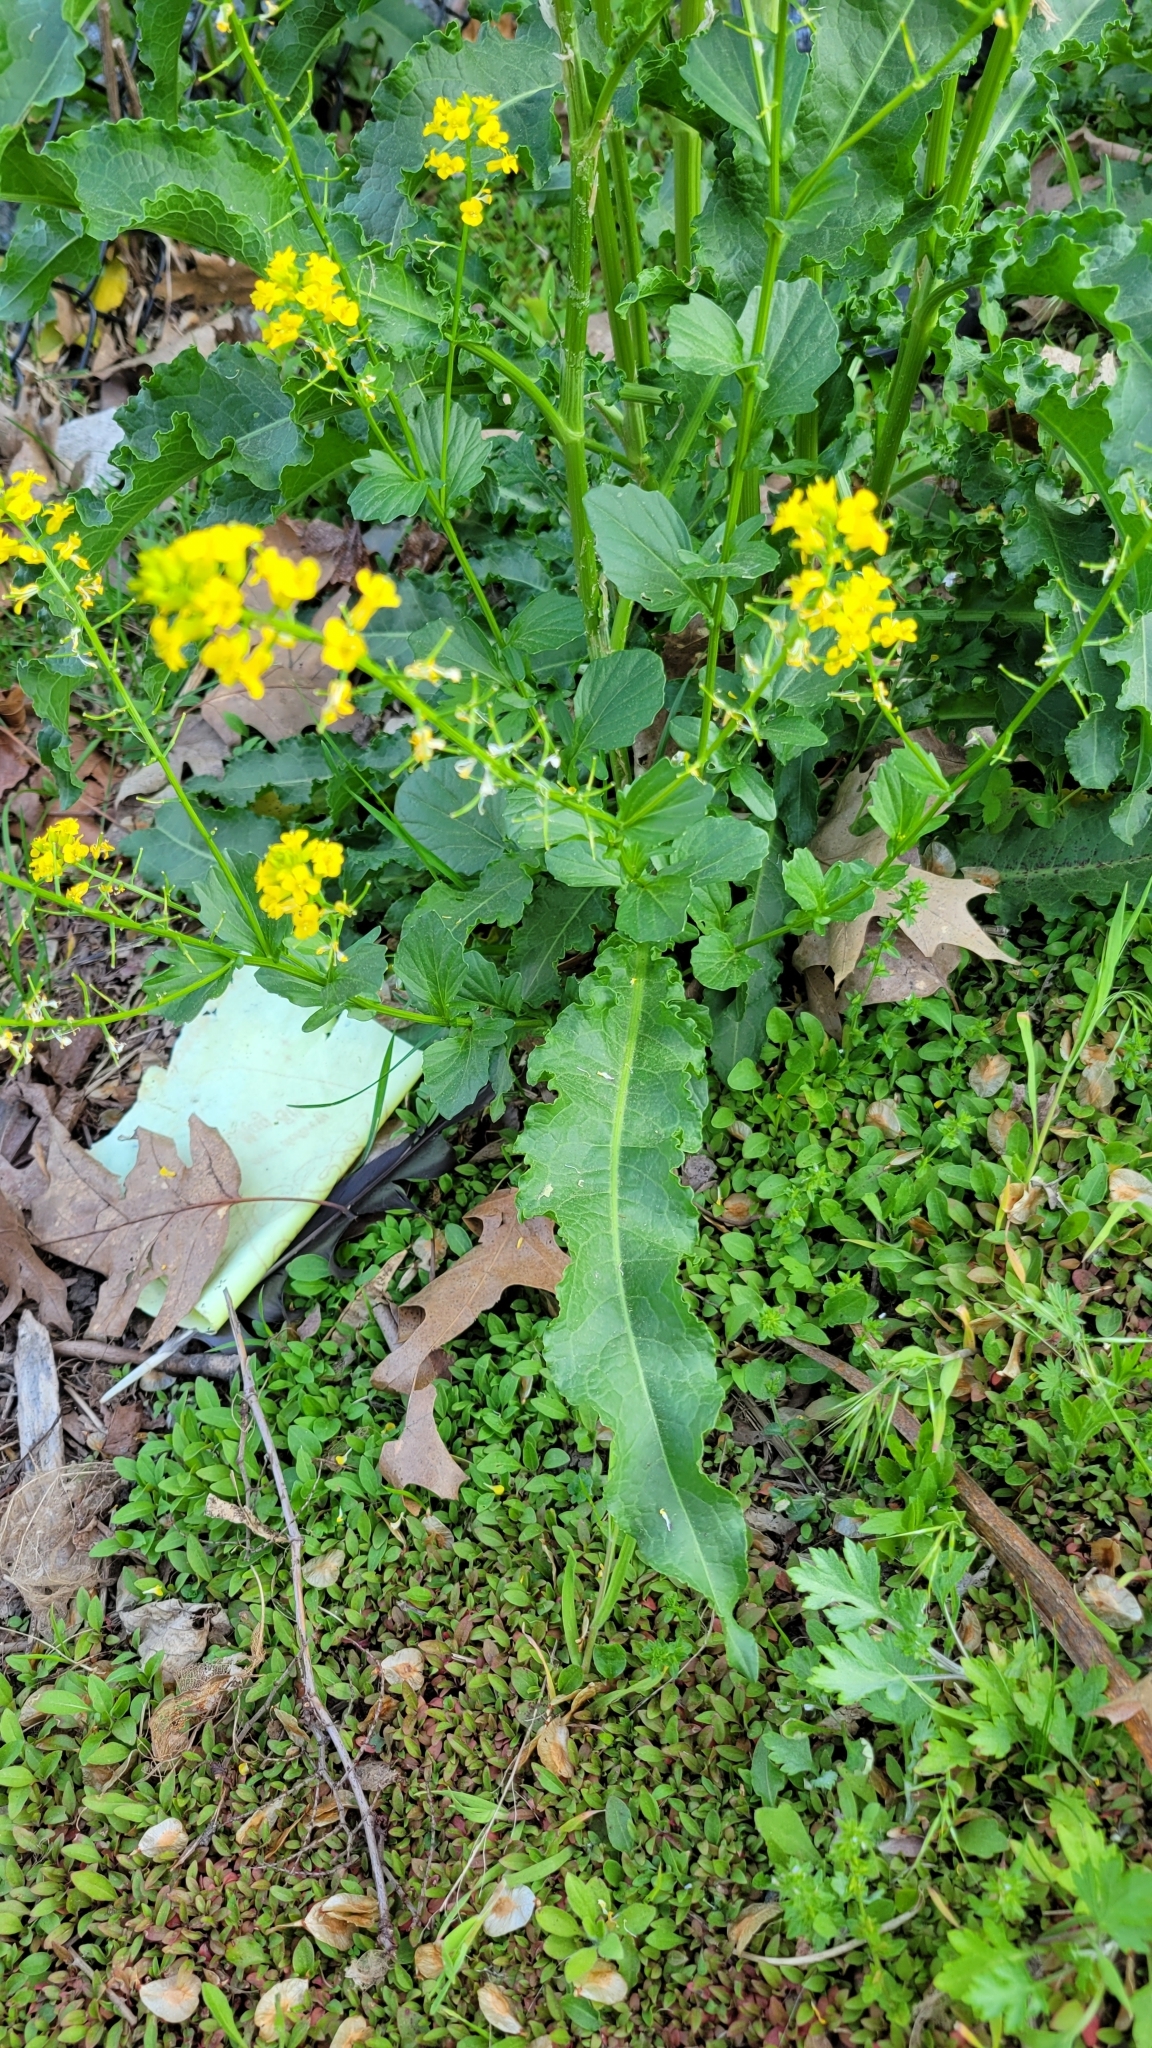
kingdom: Plantae
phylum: Tracheophyta
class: Magnoliopsida
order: Brassicales
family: Brassicaceae
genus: Barbarea
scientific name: Barbarea vulgaris
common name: Cressy-greens
